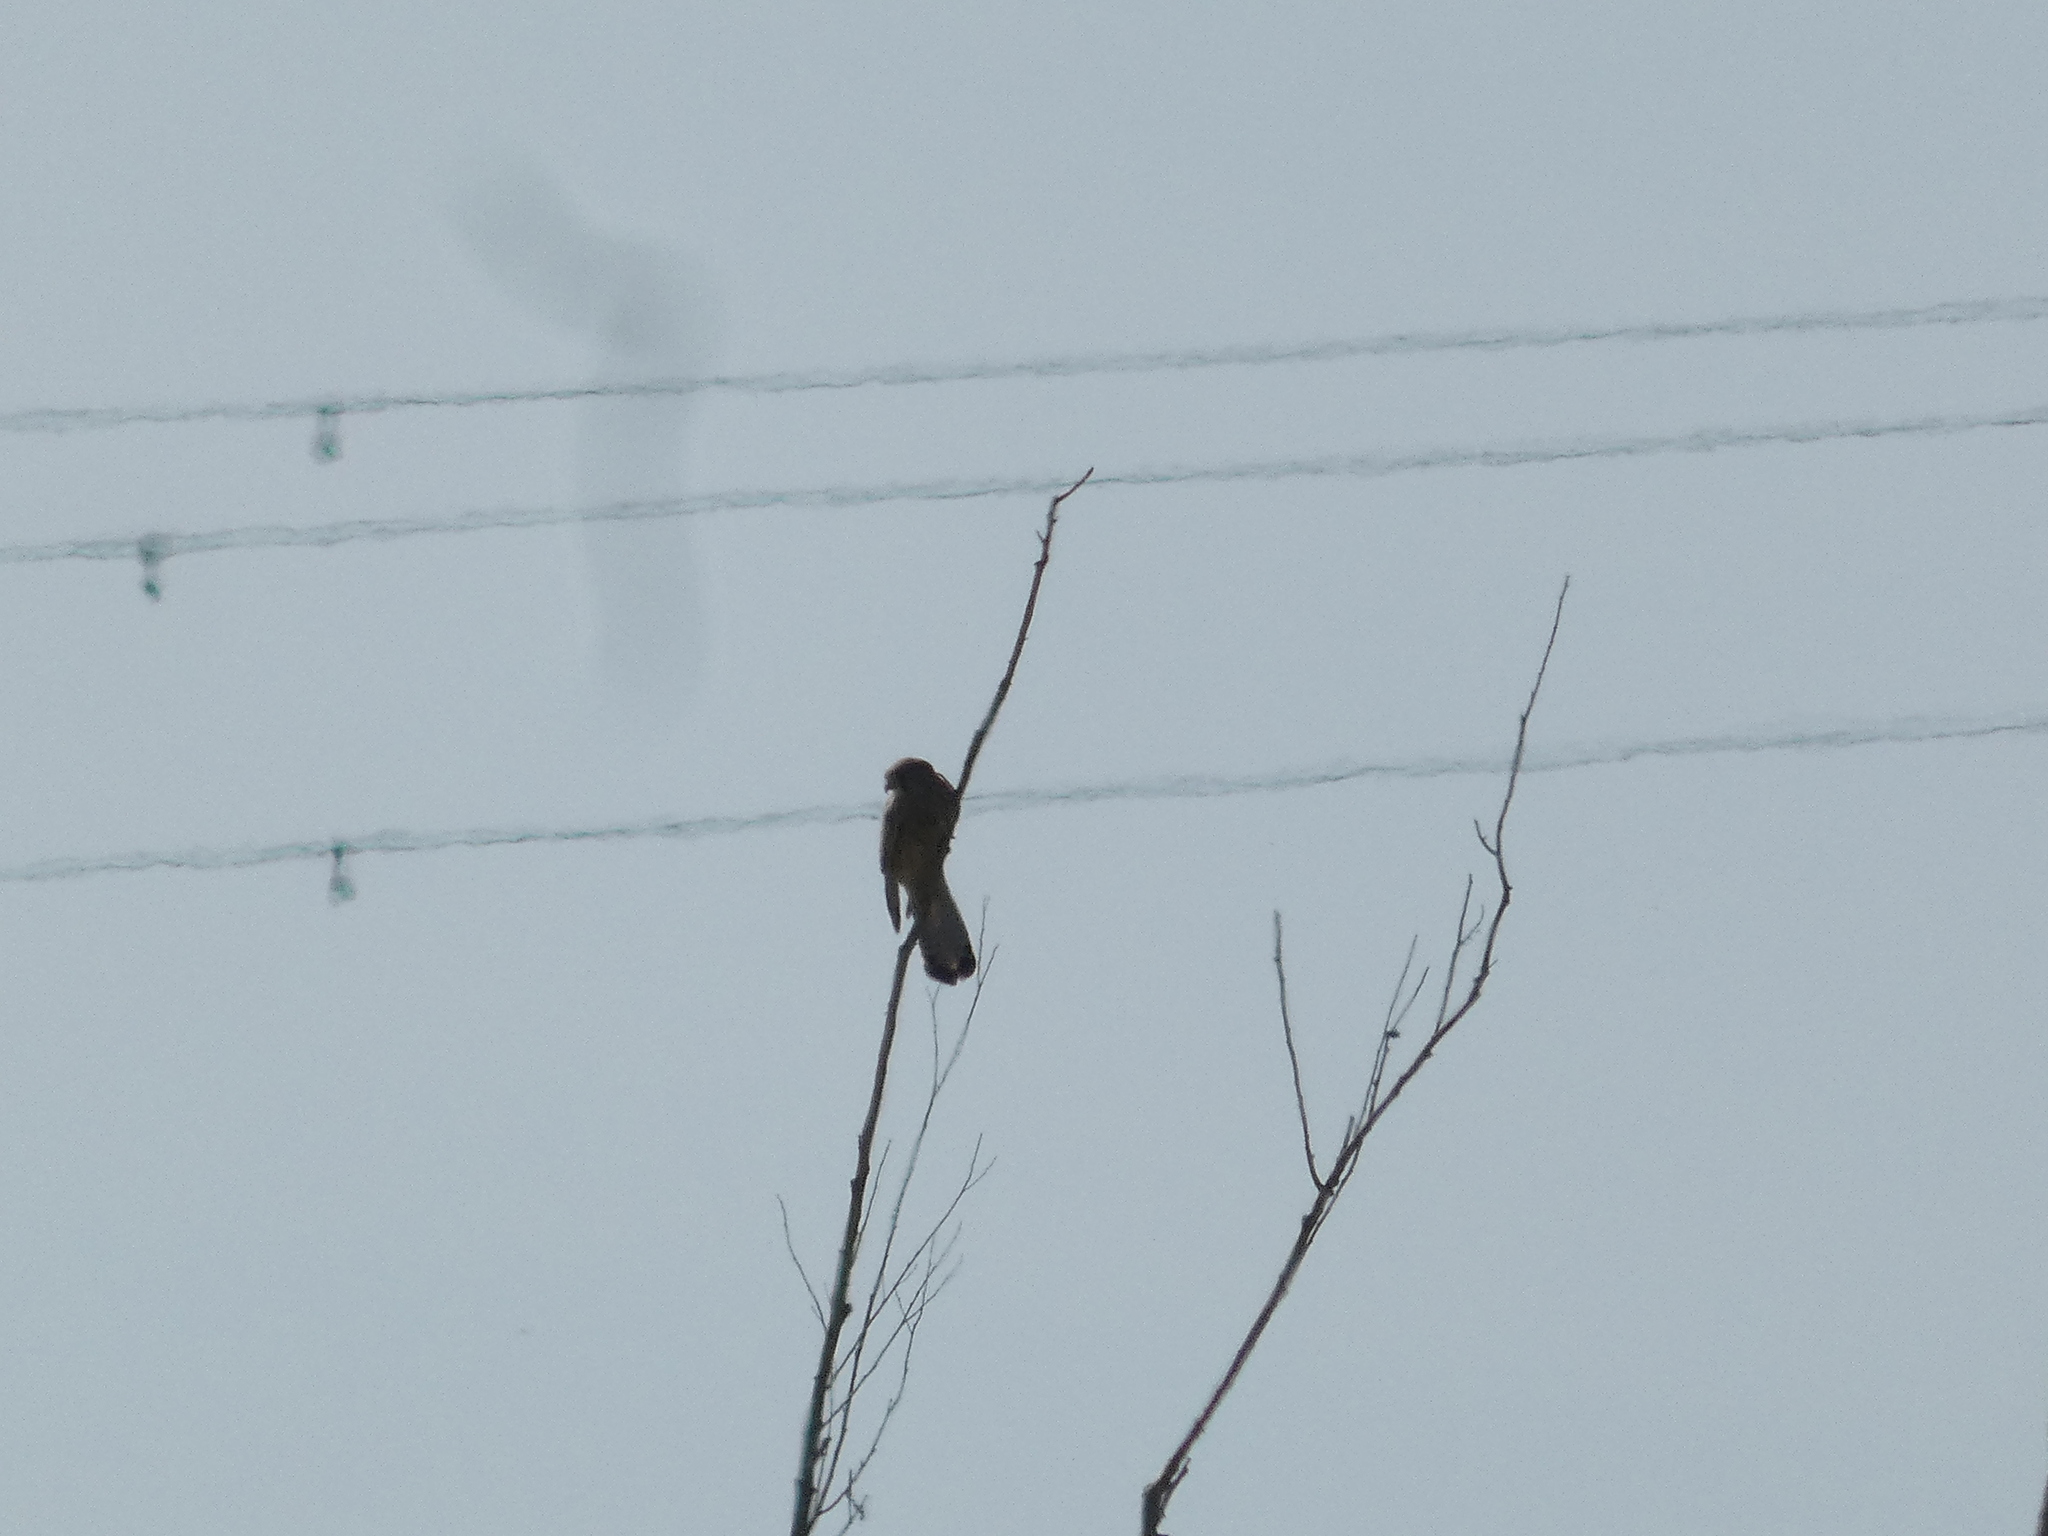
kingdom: Animalia
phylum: Chordata
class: Aves
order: Falconiformes
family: Falconidae
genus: Falco
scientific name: Falco tinnunculus
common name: Common kestrel
